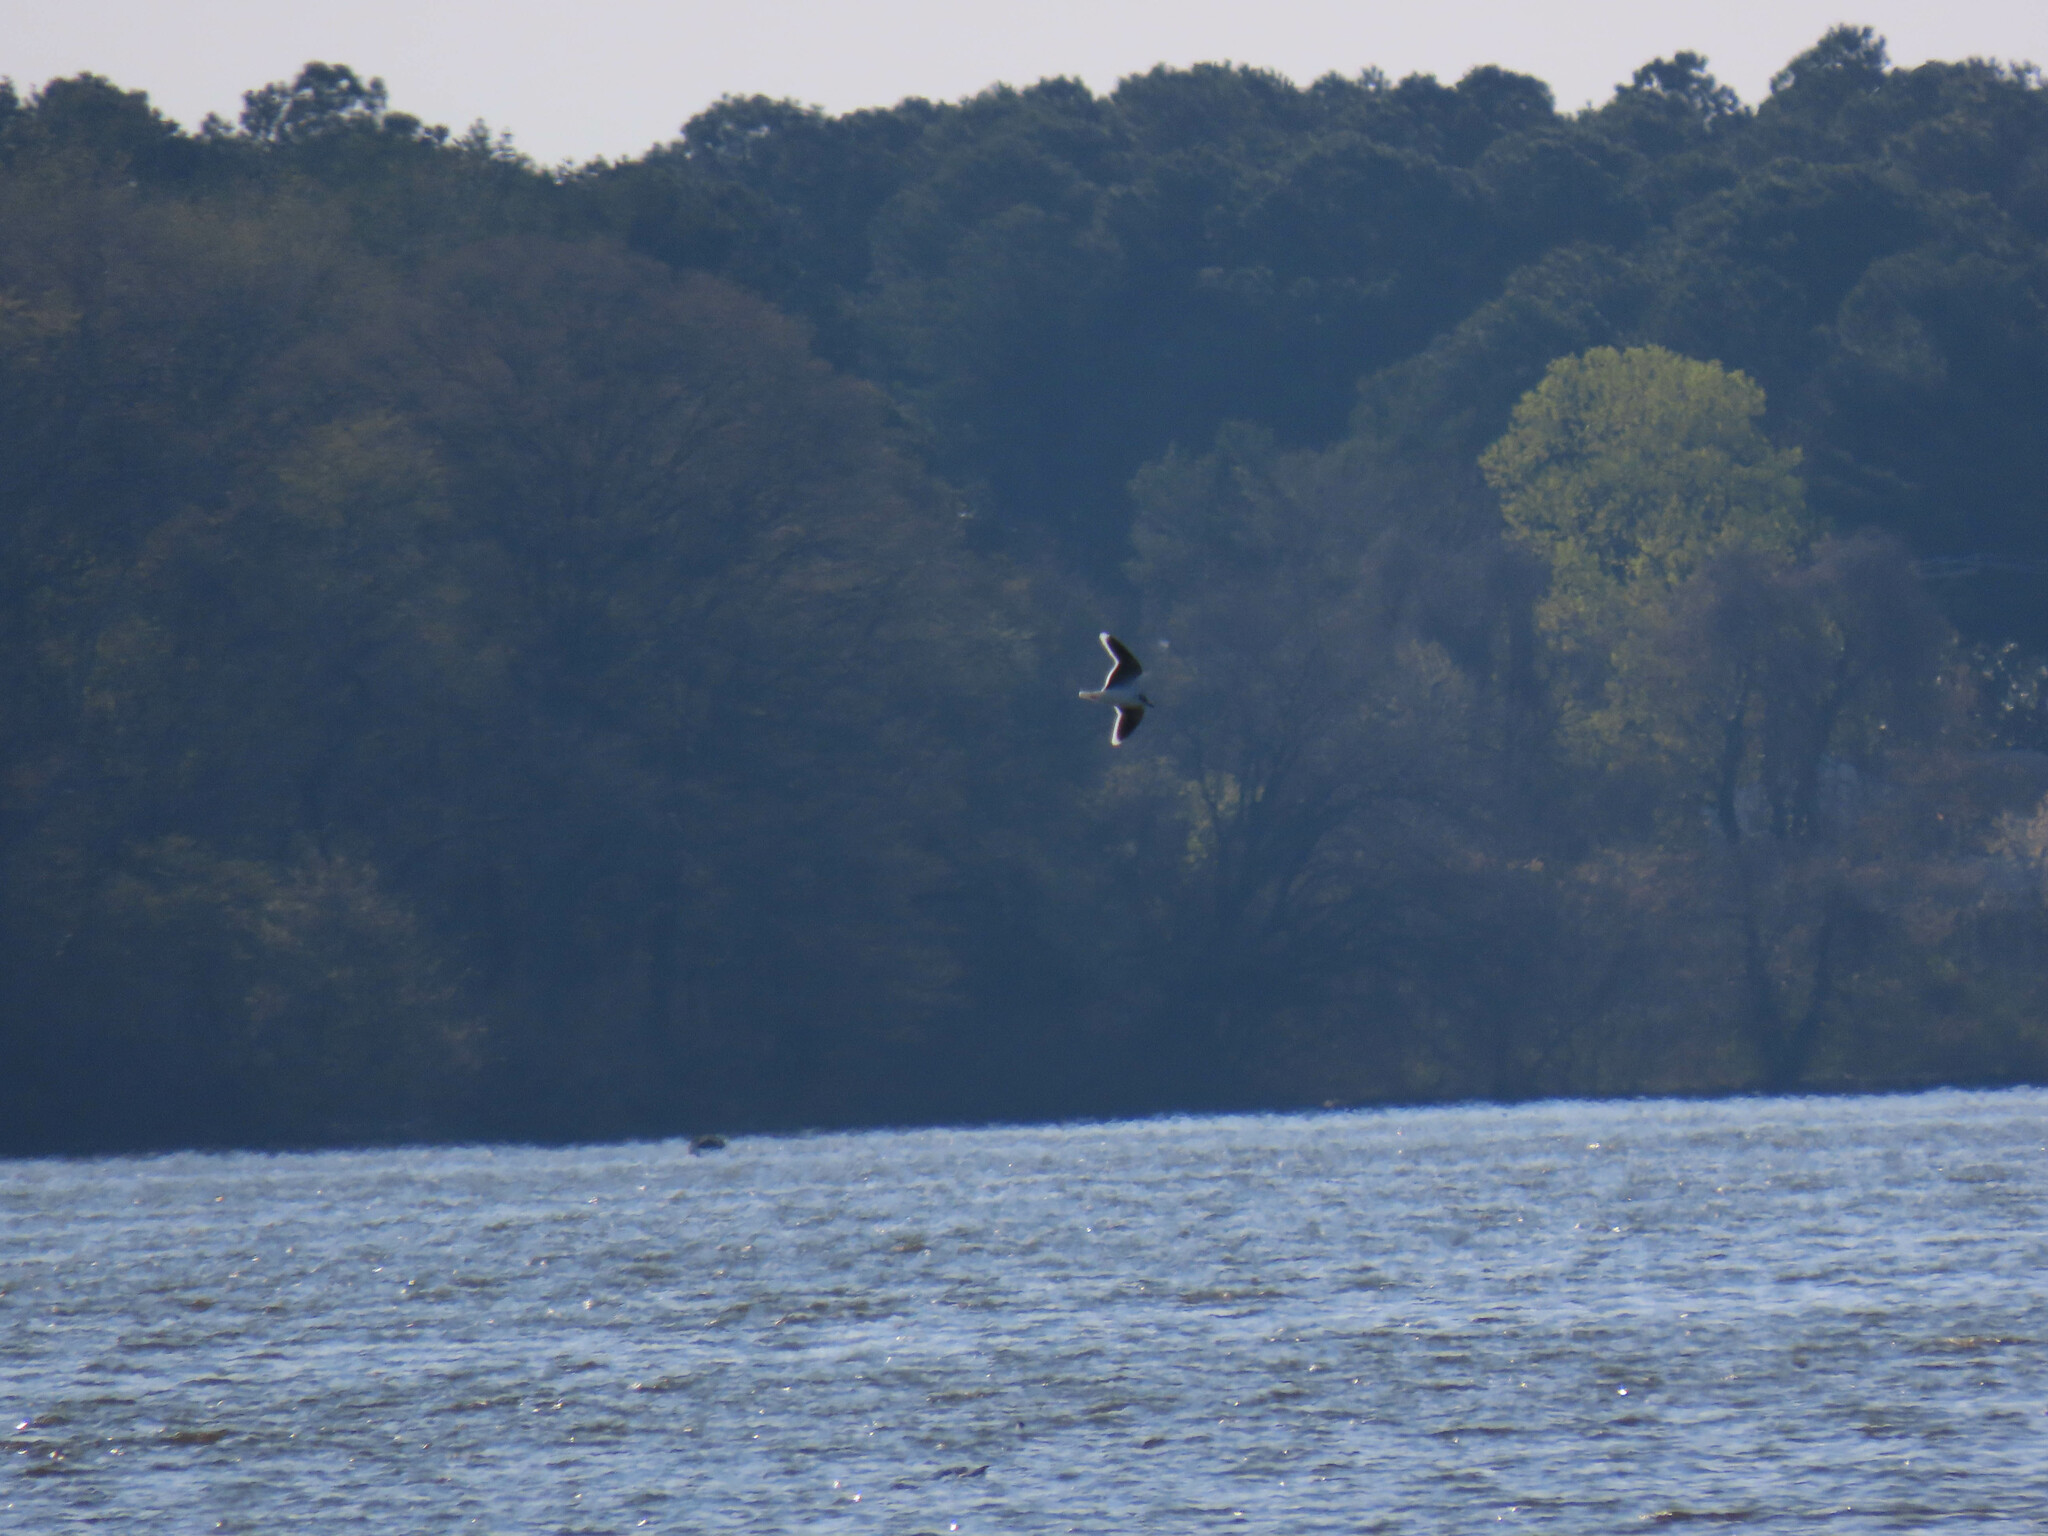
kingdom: Animalia
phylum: Chordata
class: Aves
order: Charadriiformes
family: Laridae
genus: Hydrocoloeus
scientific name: Hydrocoloeus minutus
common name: Little gull
